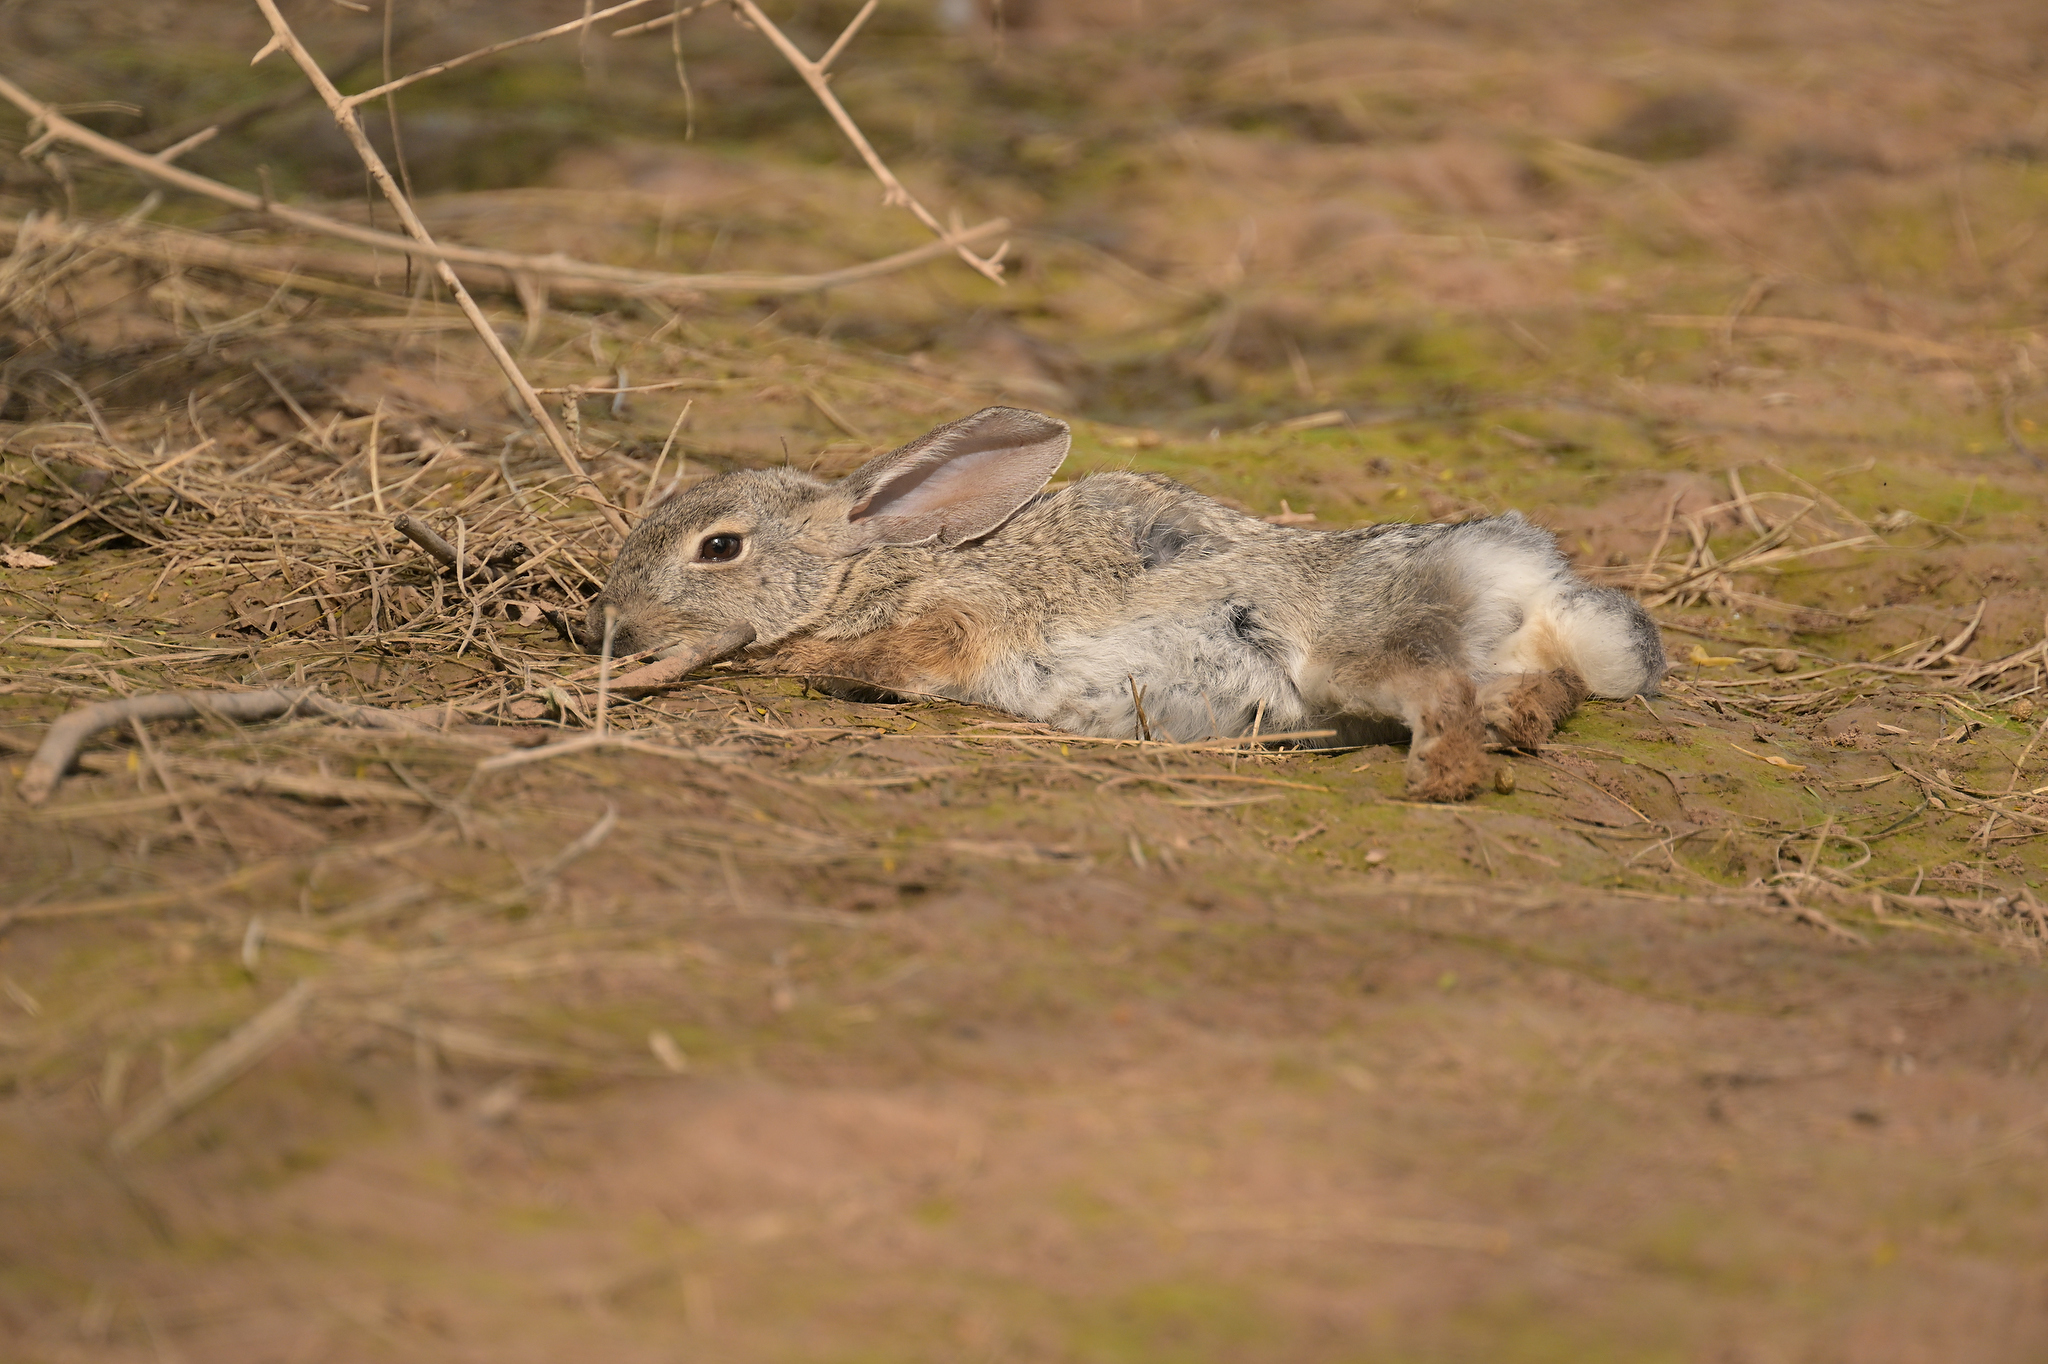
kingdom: Animalia
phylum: Chordata
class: Mammalia
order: Lagomorpha
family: Leporidae
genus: Sylvilagus
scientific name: Sylvilagus audubonii
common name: Desert cottontail
